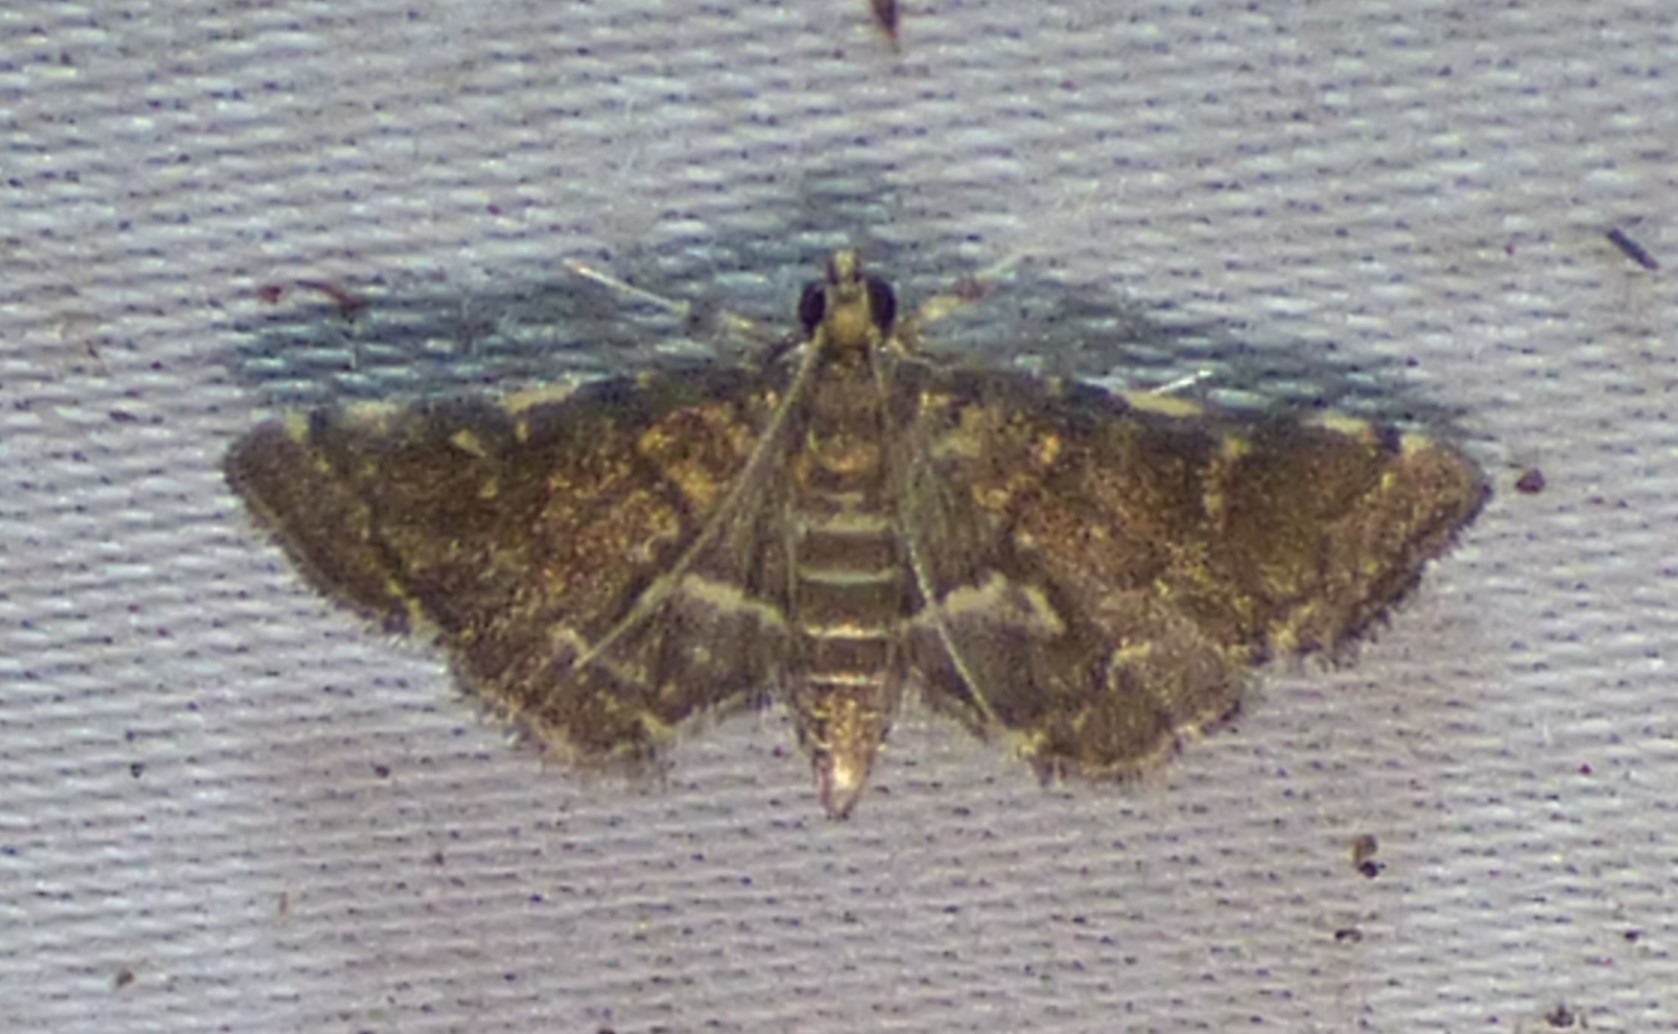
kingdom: Animalia
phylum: Arthropoda
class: Insecta
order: Lepidoptera
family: Crambidae
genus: Anageshna
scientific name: Anageshna primordialis
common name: Yellow-spotted webworm moth
